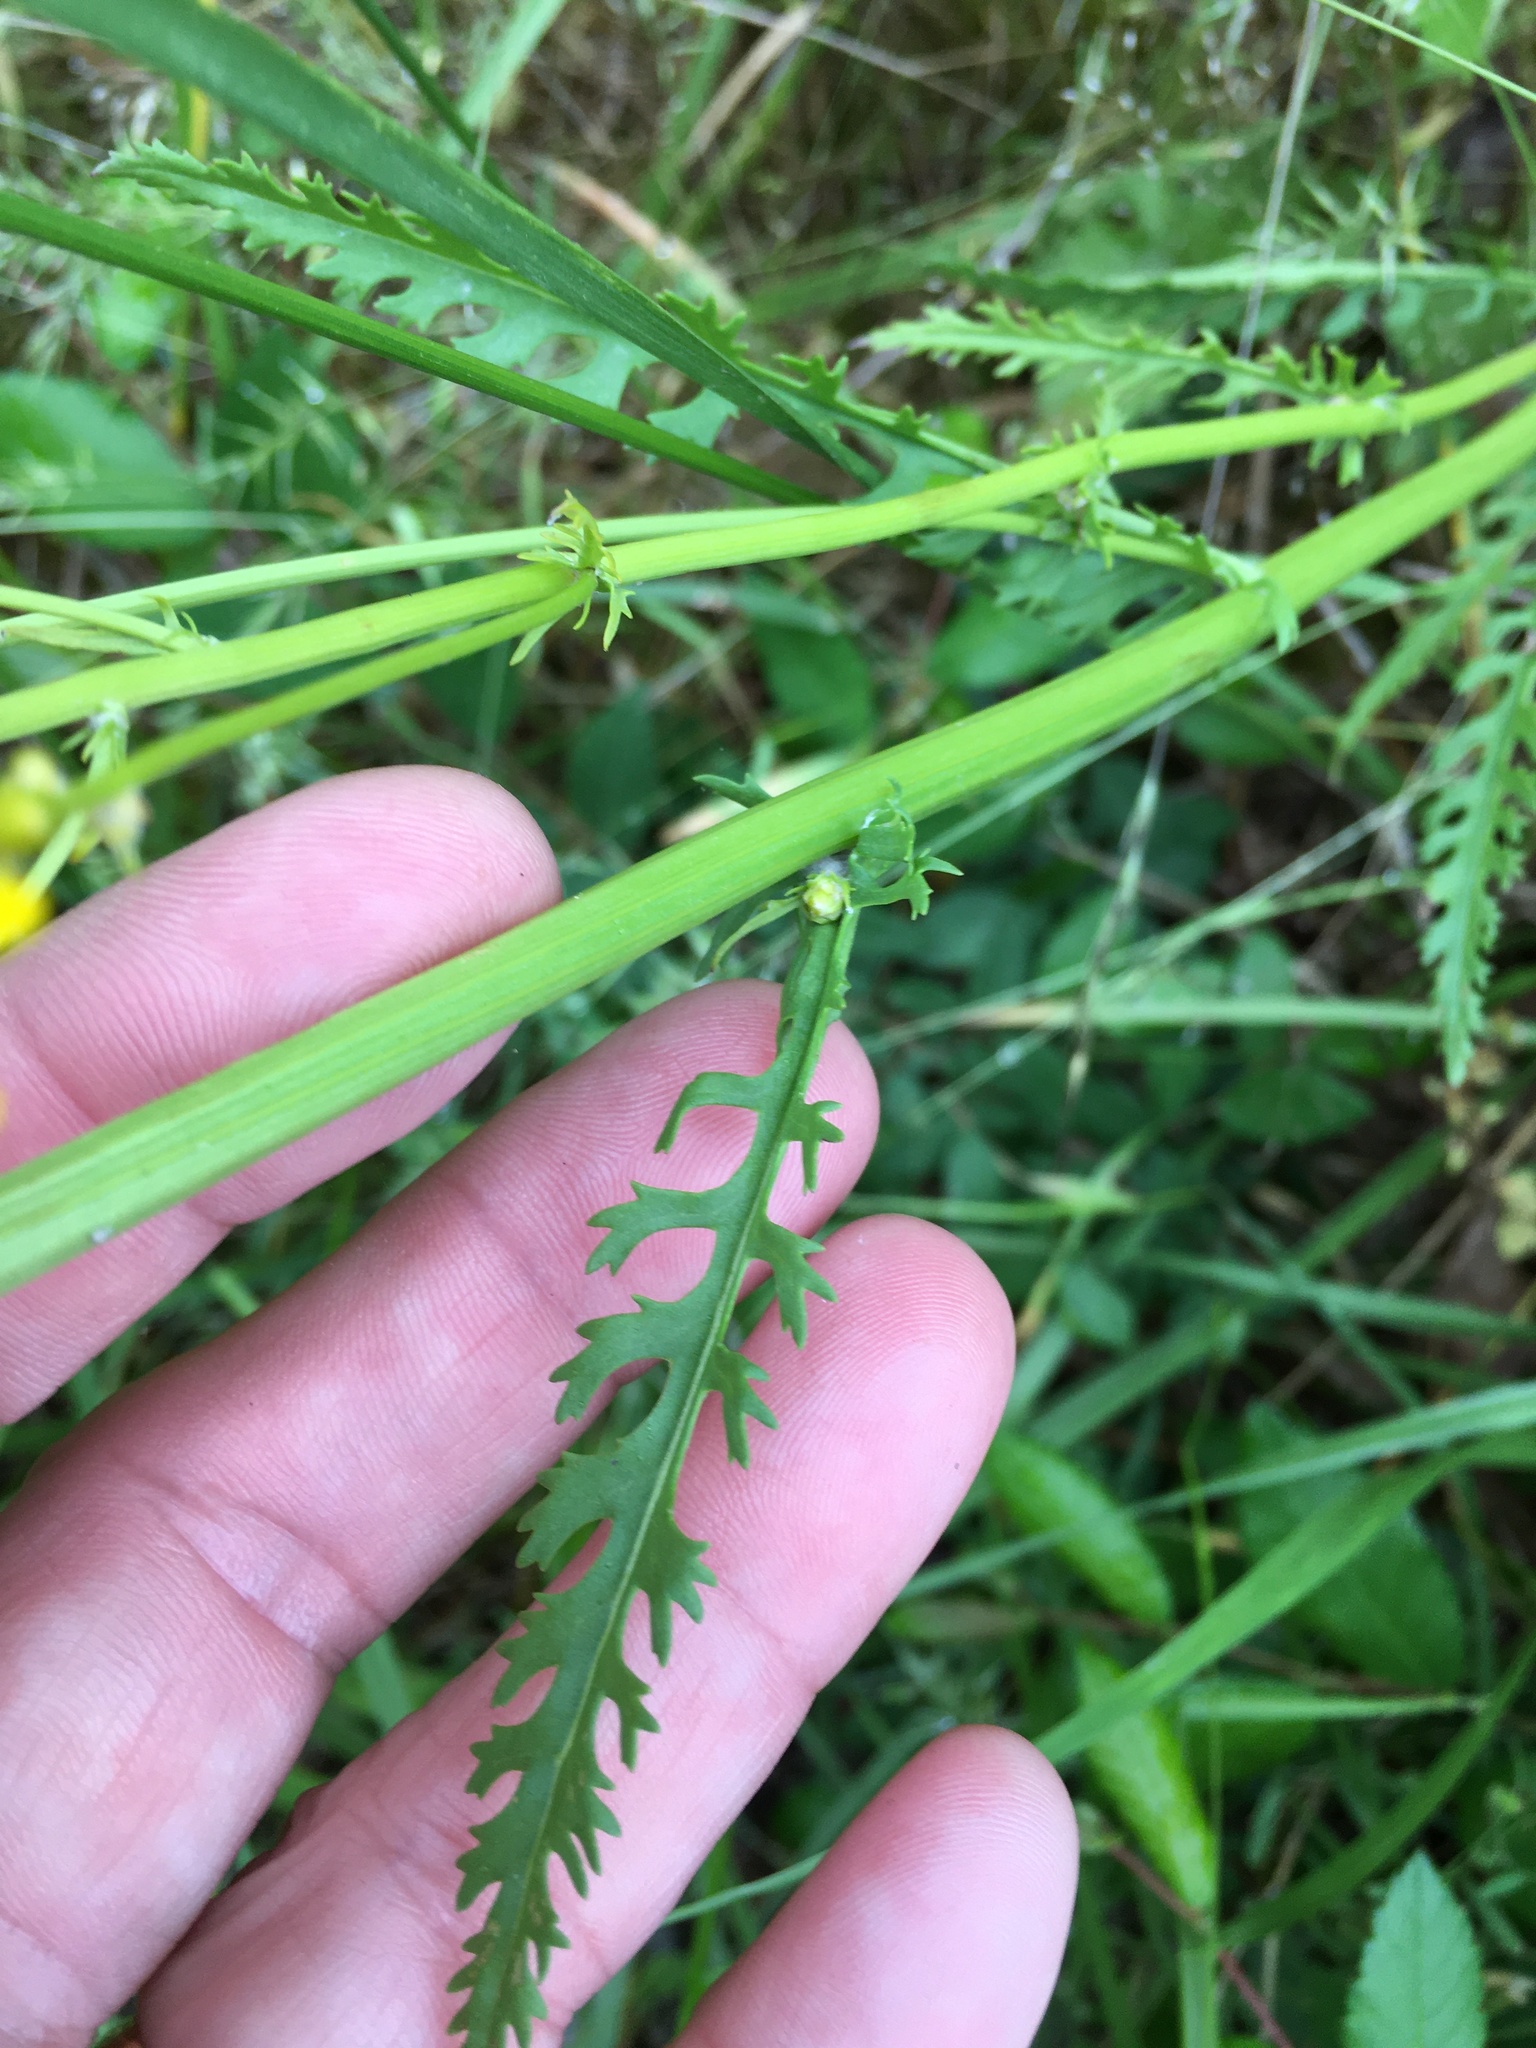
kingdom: Plantae
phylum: Tracheophyta
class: Magnoliopsida
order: Asterales
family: Asteraceae
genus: Packera
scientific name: Packera anonyma
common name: Small ragwort
